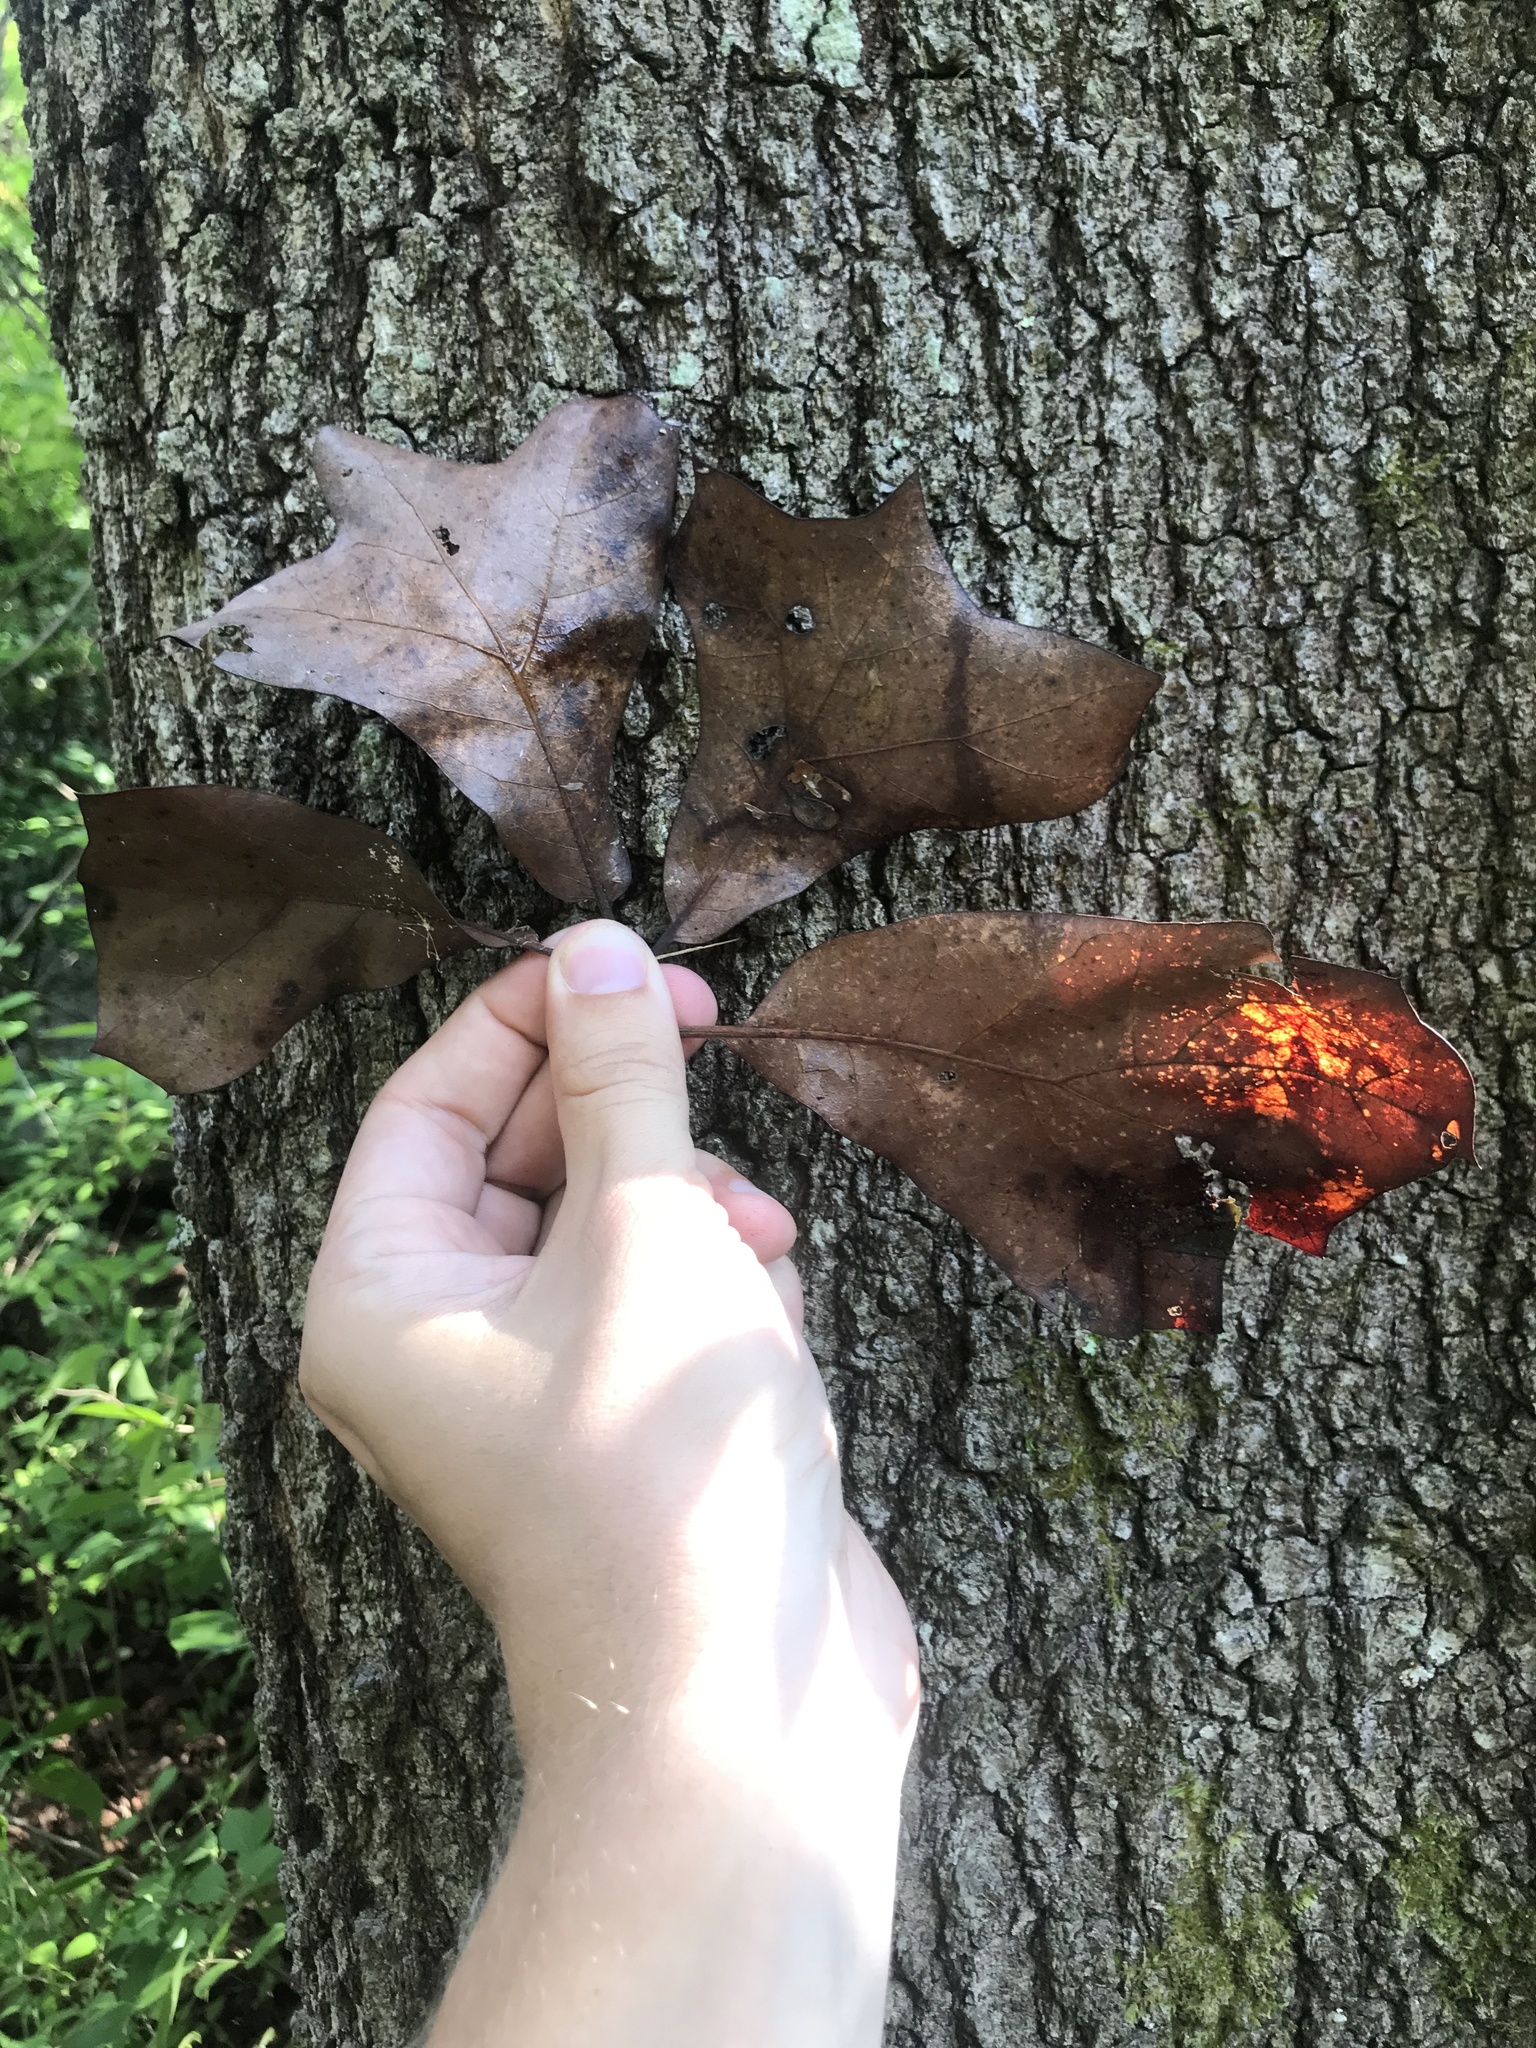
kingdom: Plantae
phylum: Tracheophyta
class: Magnoliopsida
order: Fagales
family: Fagaceae
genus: Quercus
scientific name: Quercus marilandica
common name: Blackjack oak
